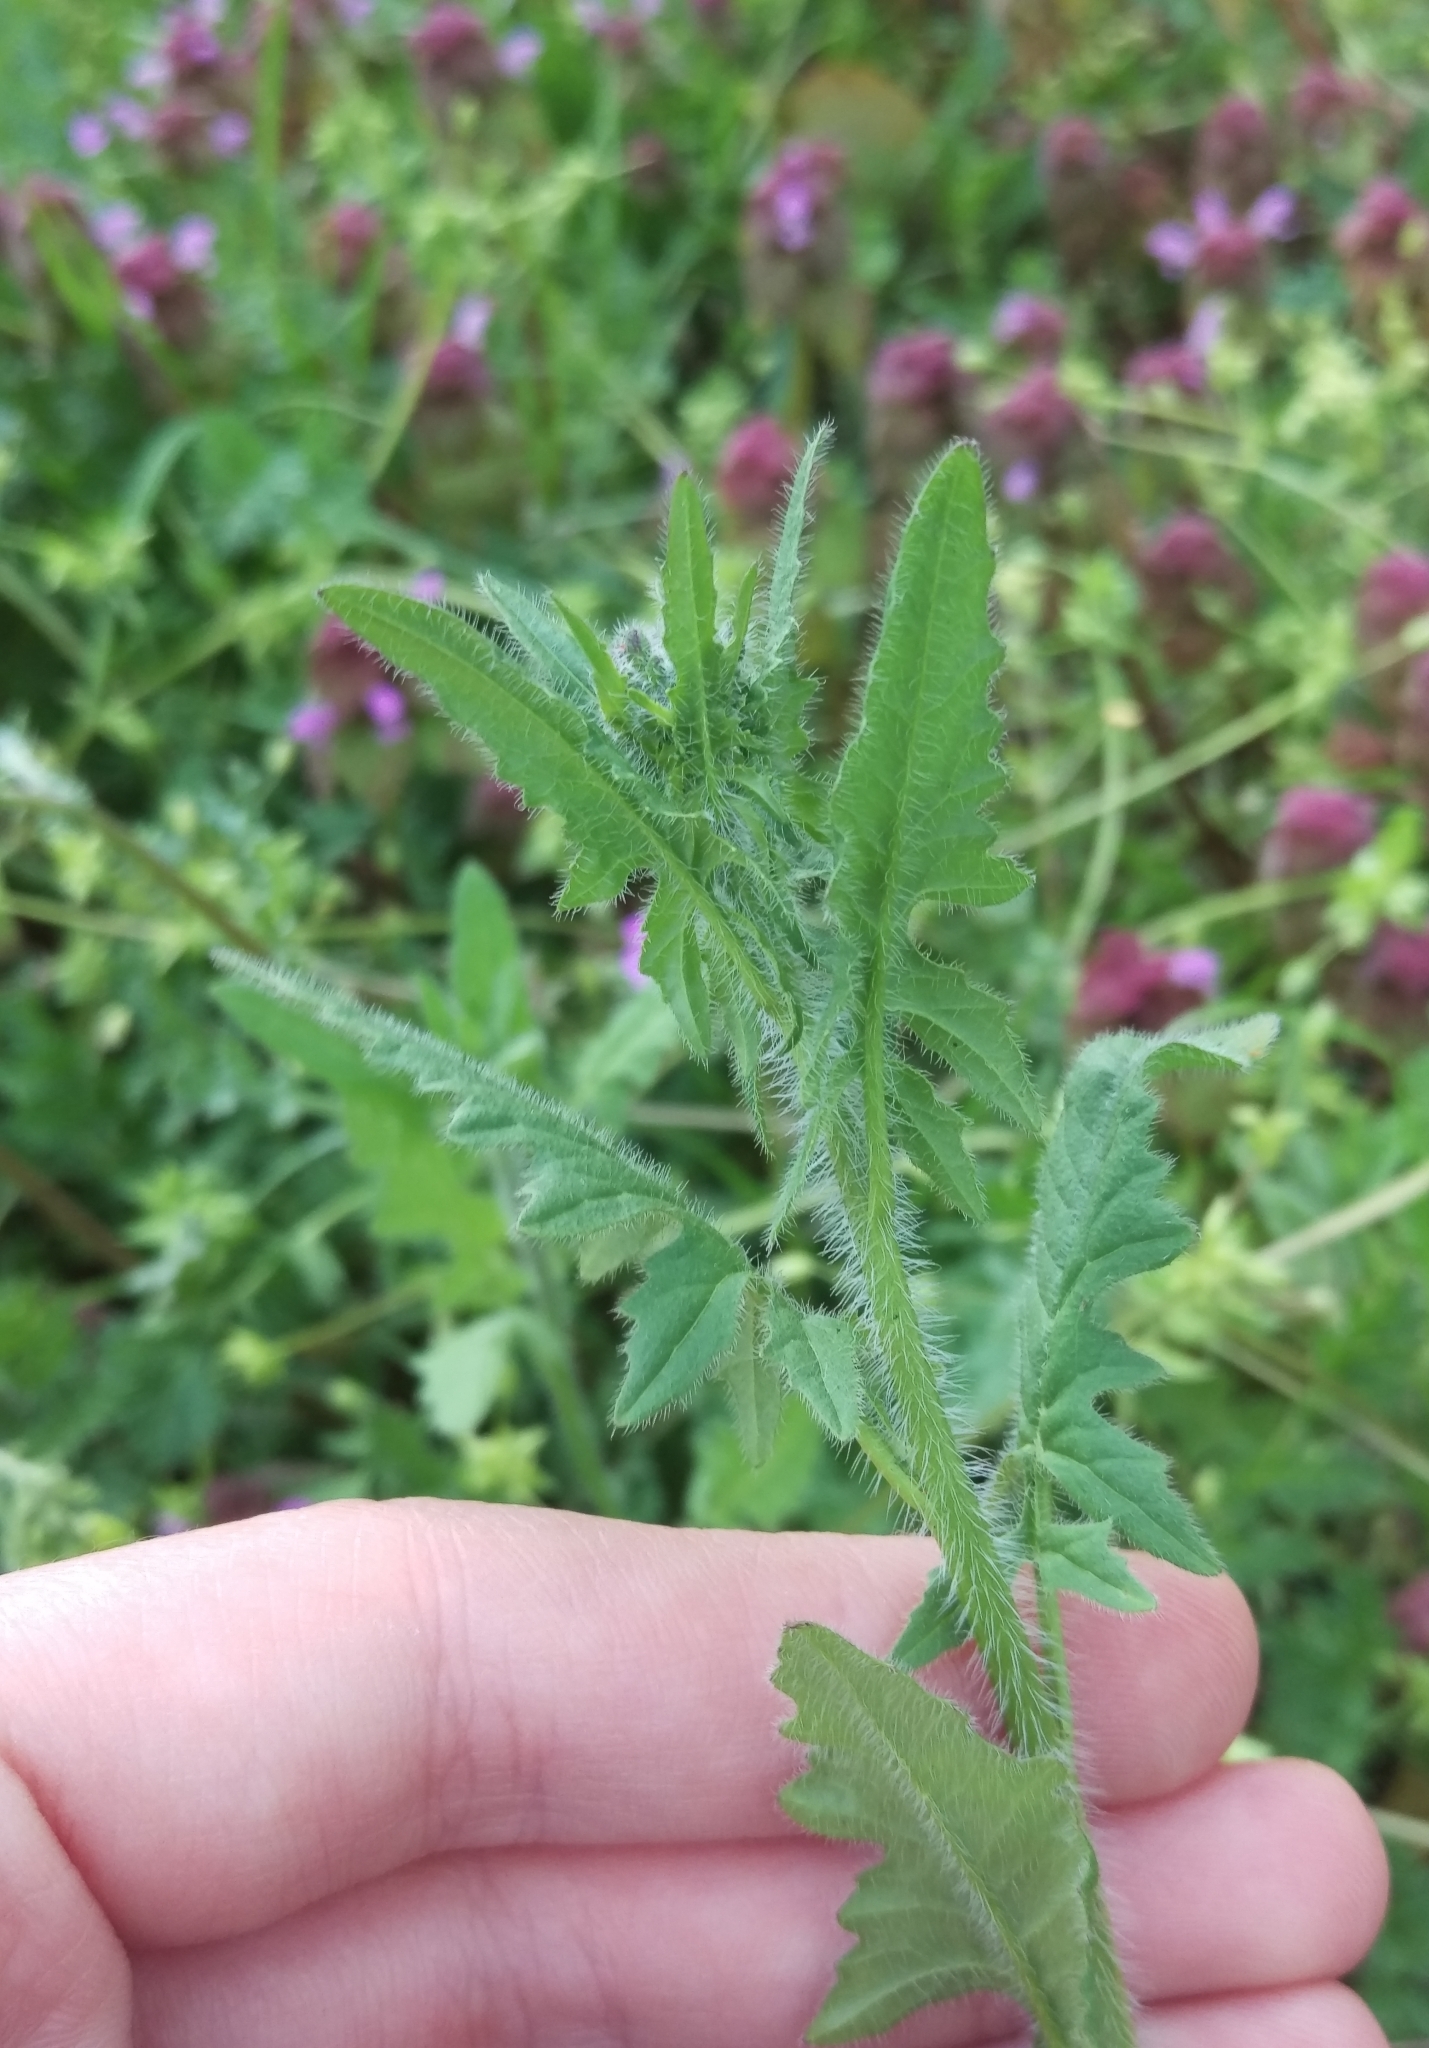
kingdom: Plantae
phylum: Tracheophyta
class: Magnoliopsida
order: Brassicales
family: Brassicaceae
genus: Sisymbrium
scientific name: Sisymbrium loeselii
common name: False london-rocket
